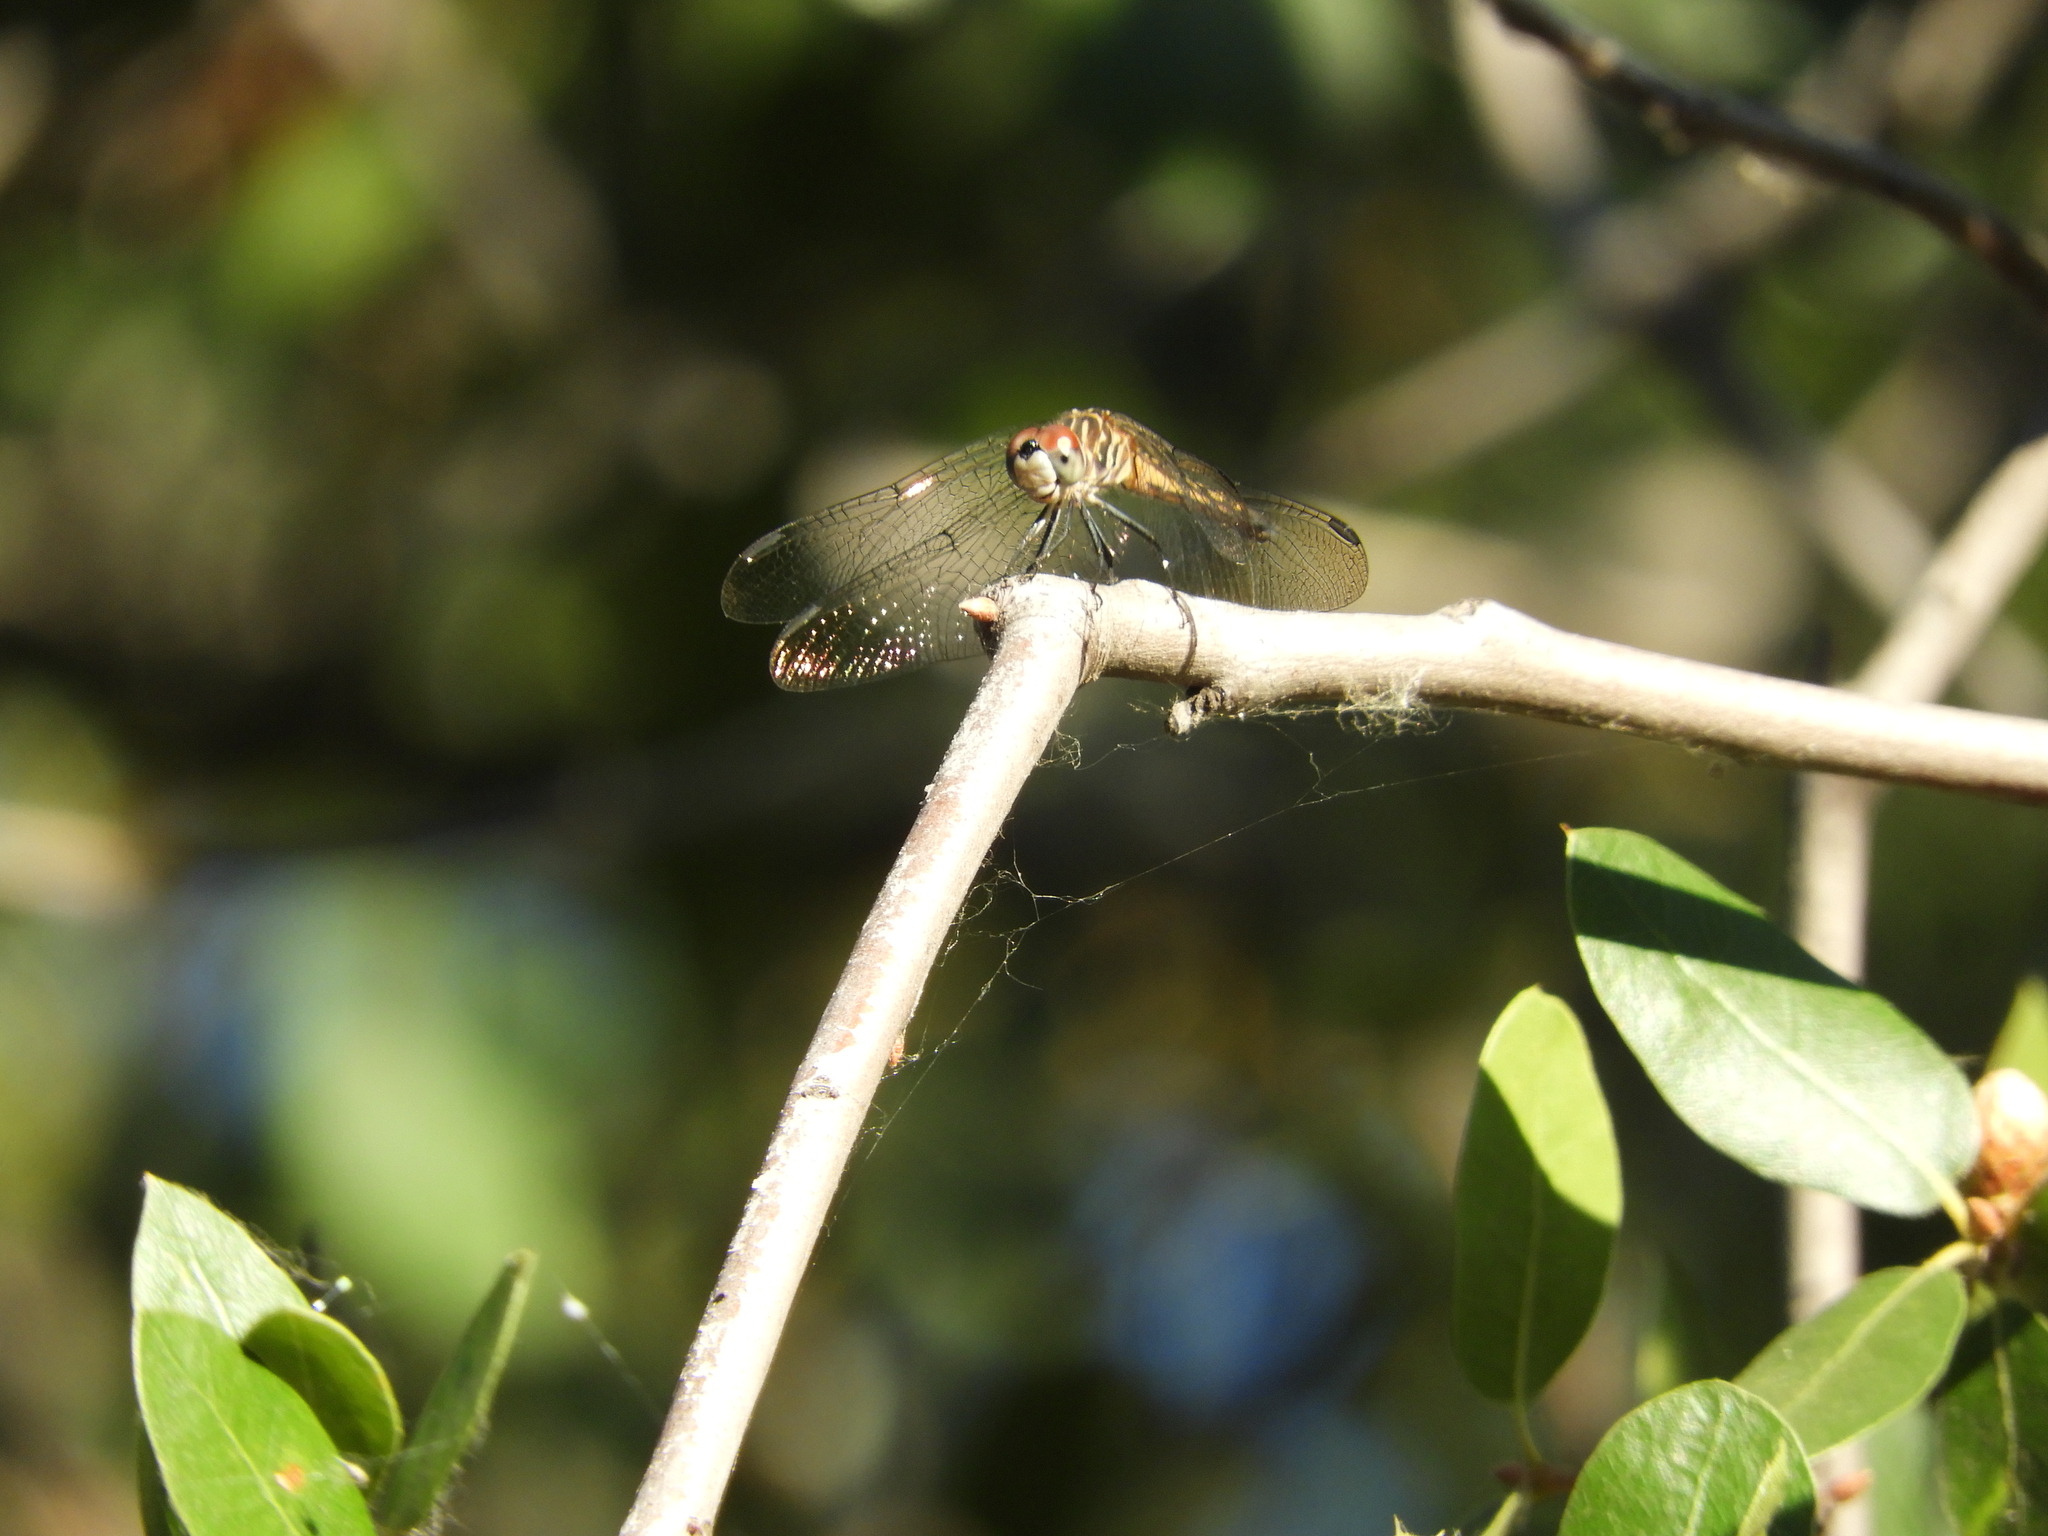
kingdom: Animalia
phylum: Arthropoda
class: Insecta
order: Odonata
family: Libellulidae
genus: Pachydiplax
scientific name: Pachydiplax longipennis
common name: Blue dasher
